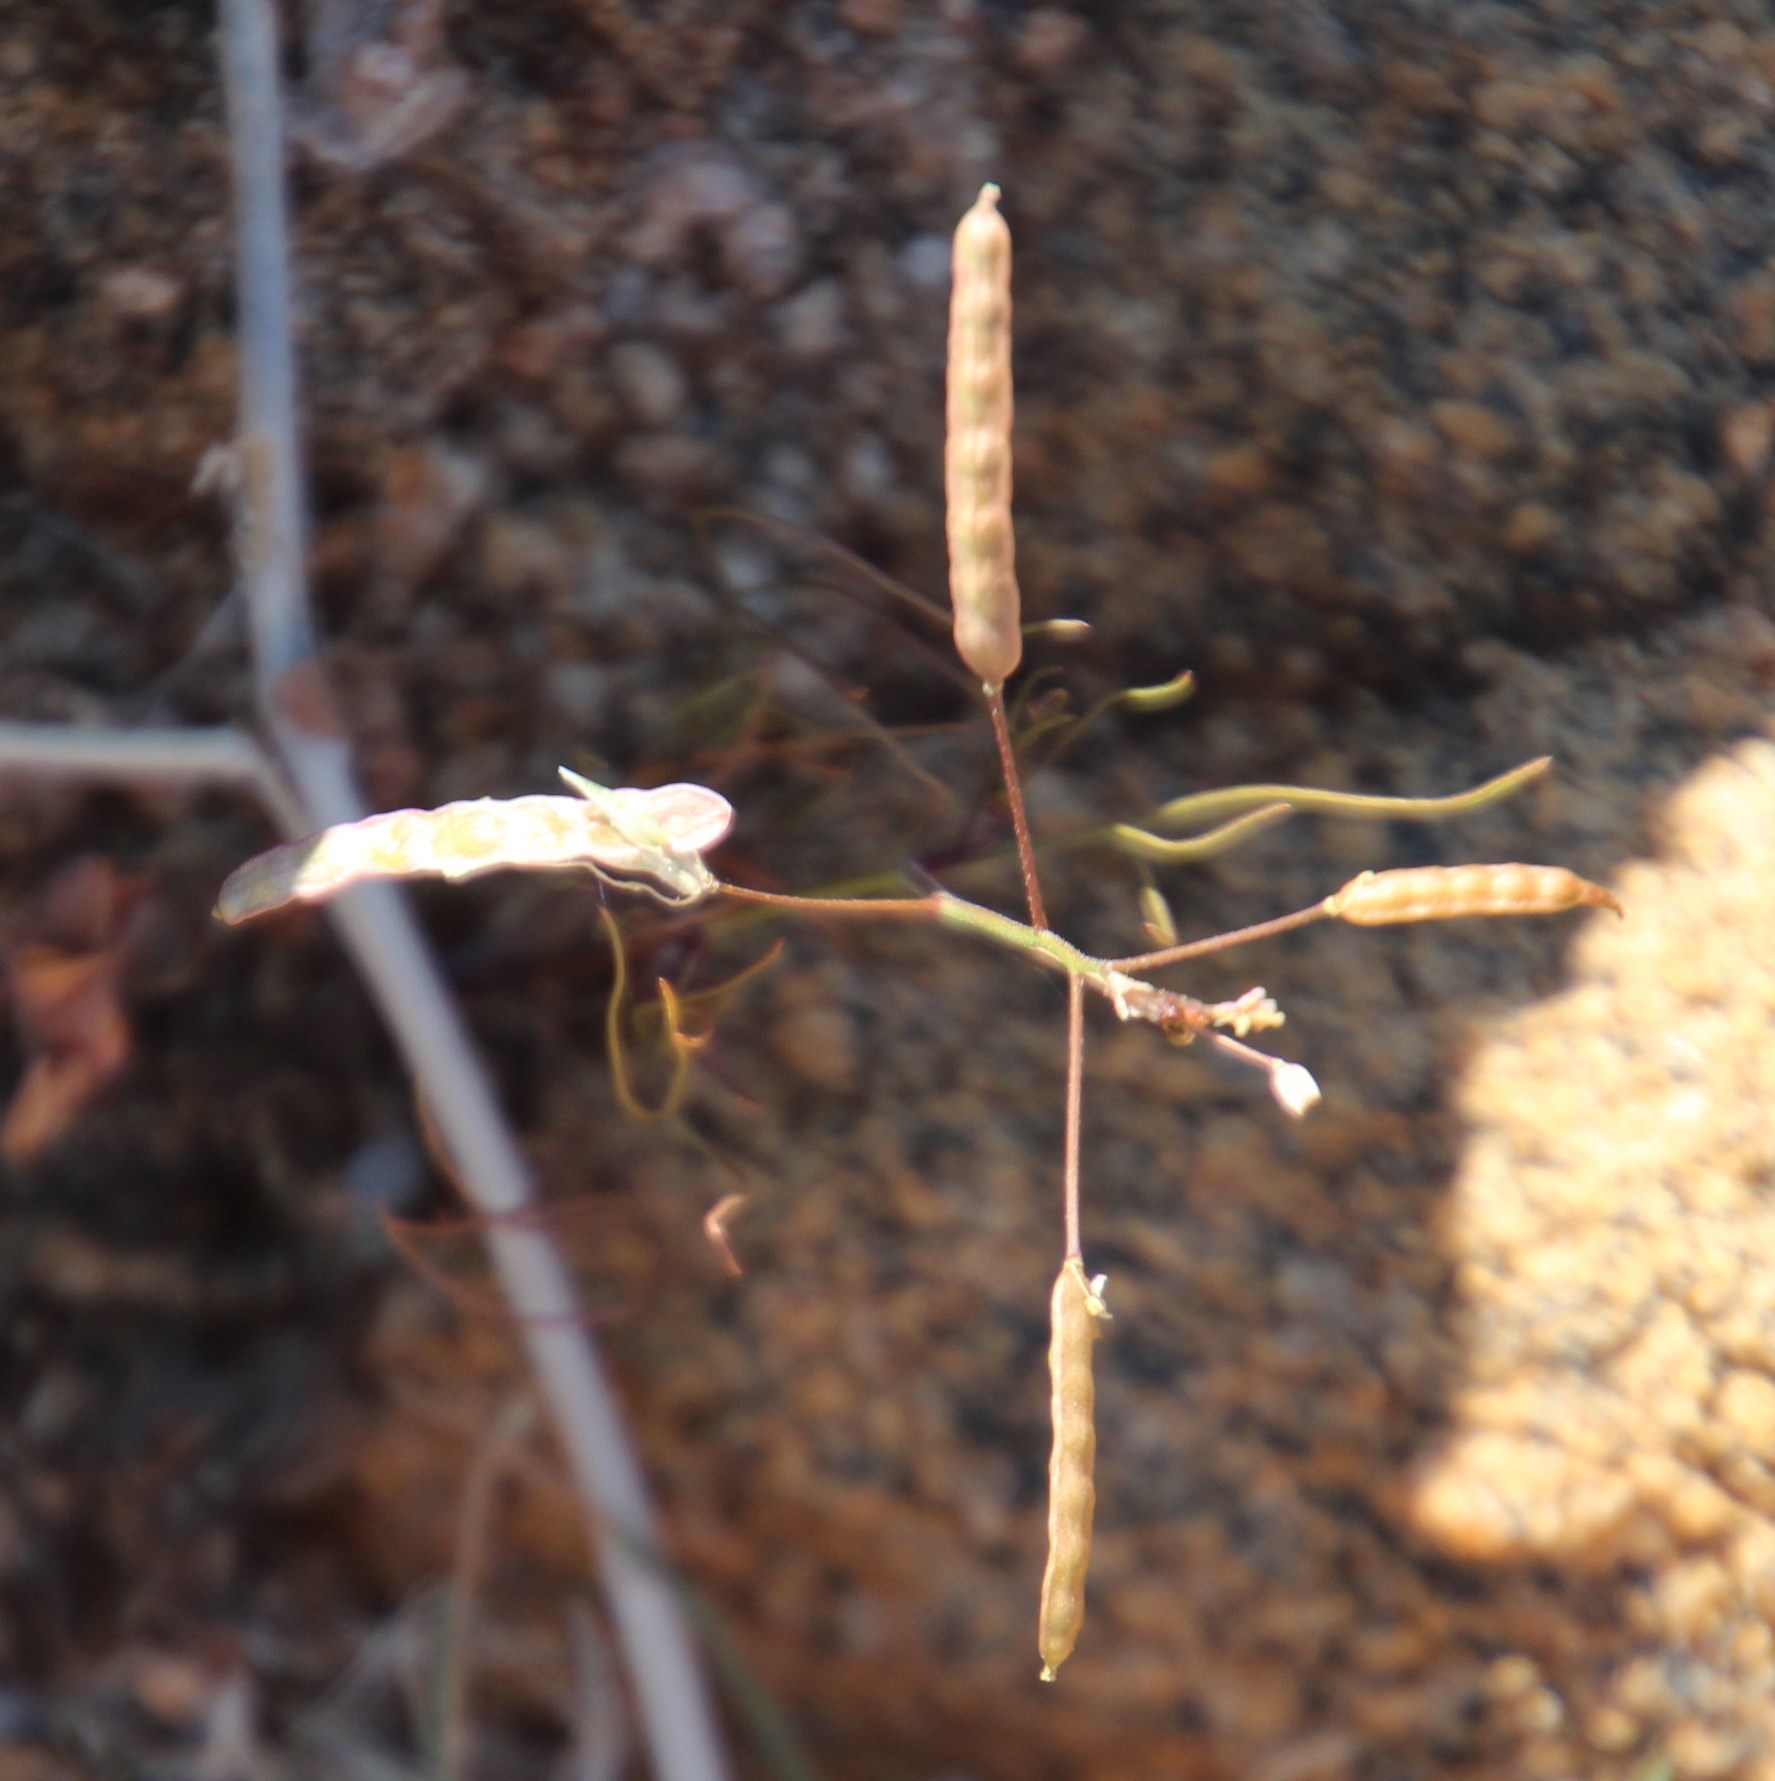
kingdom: Plantae
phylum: Tracheophyta
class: Magnoliopsida
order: Brassicales
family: Brassicaceae
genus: Heliophila
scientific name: Heliophila variabilis
